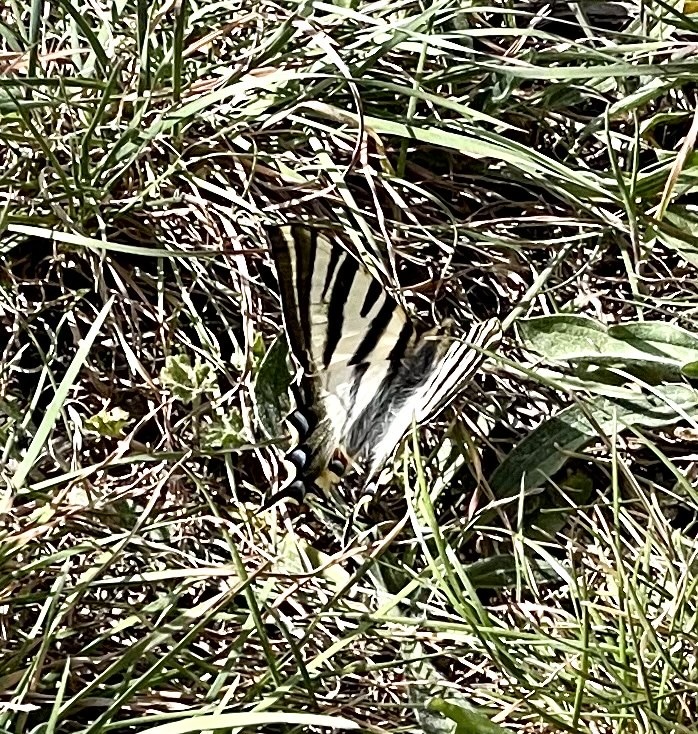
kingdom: Animalia
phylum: Arthropoda
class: Insecta
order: Lepidoptera
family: Papilionidae
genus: Iphiclides
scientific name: Iphiclides feisthamelii
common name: Iberian scarce swallowtail
